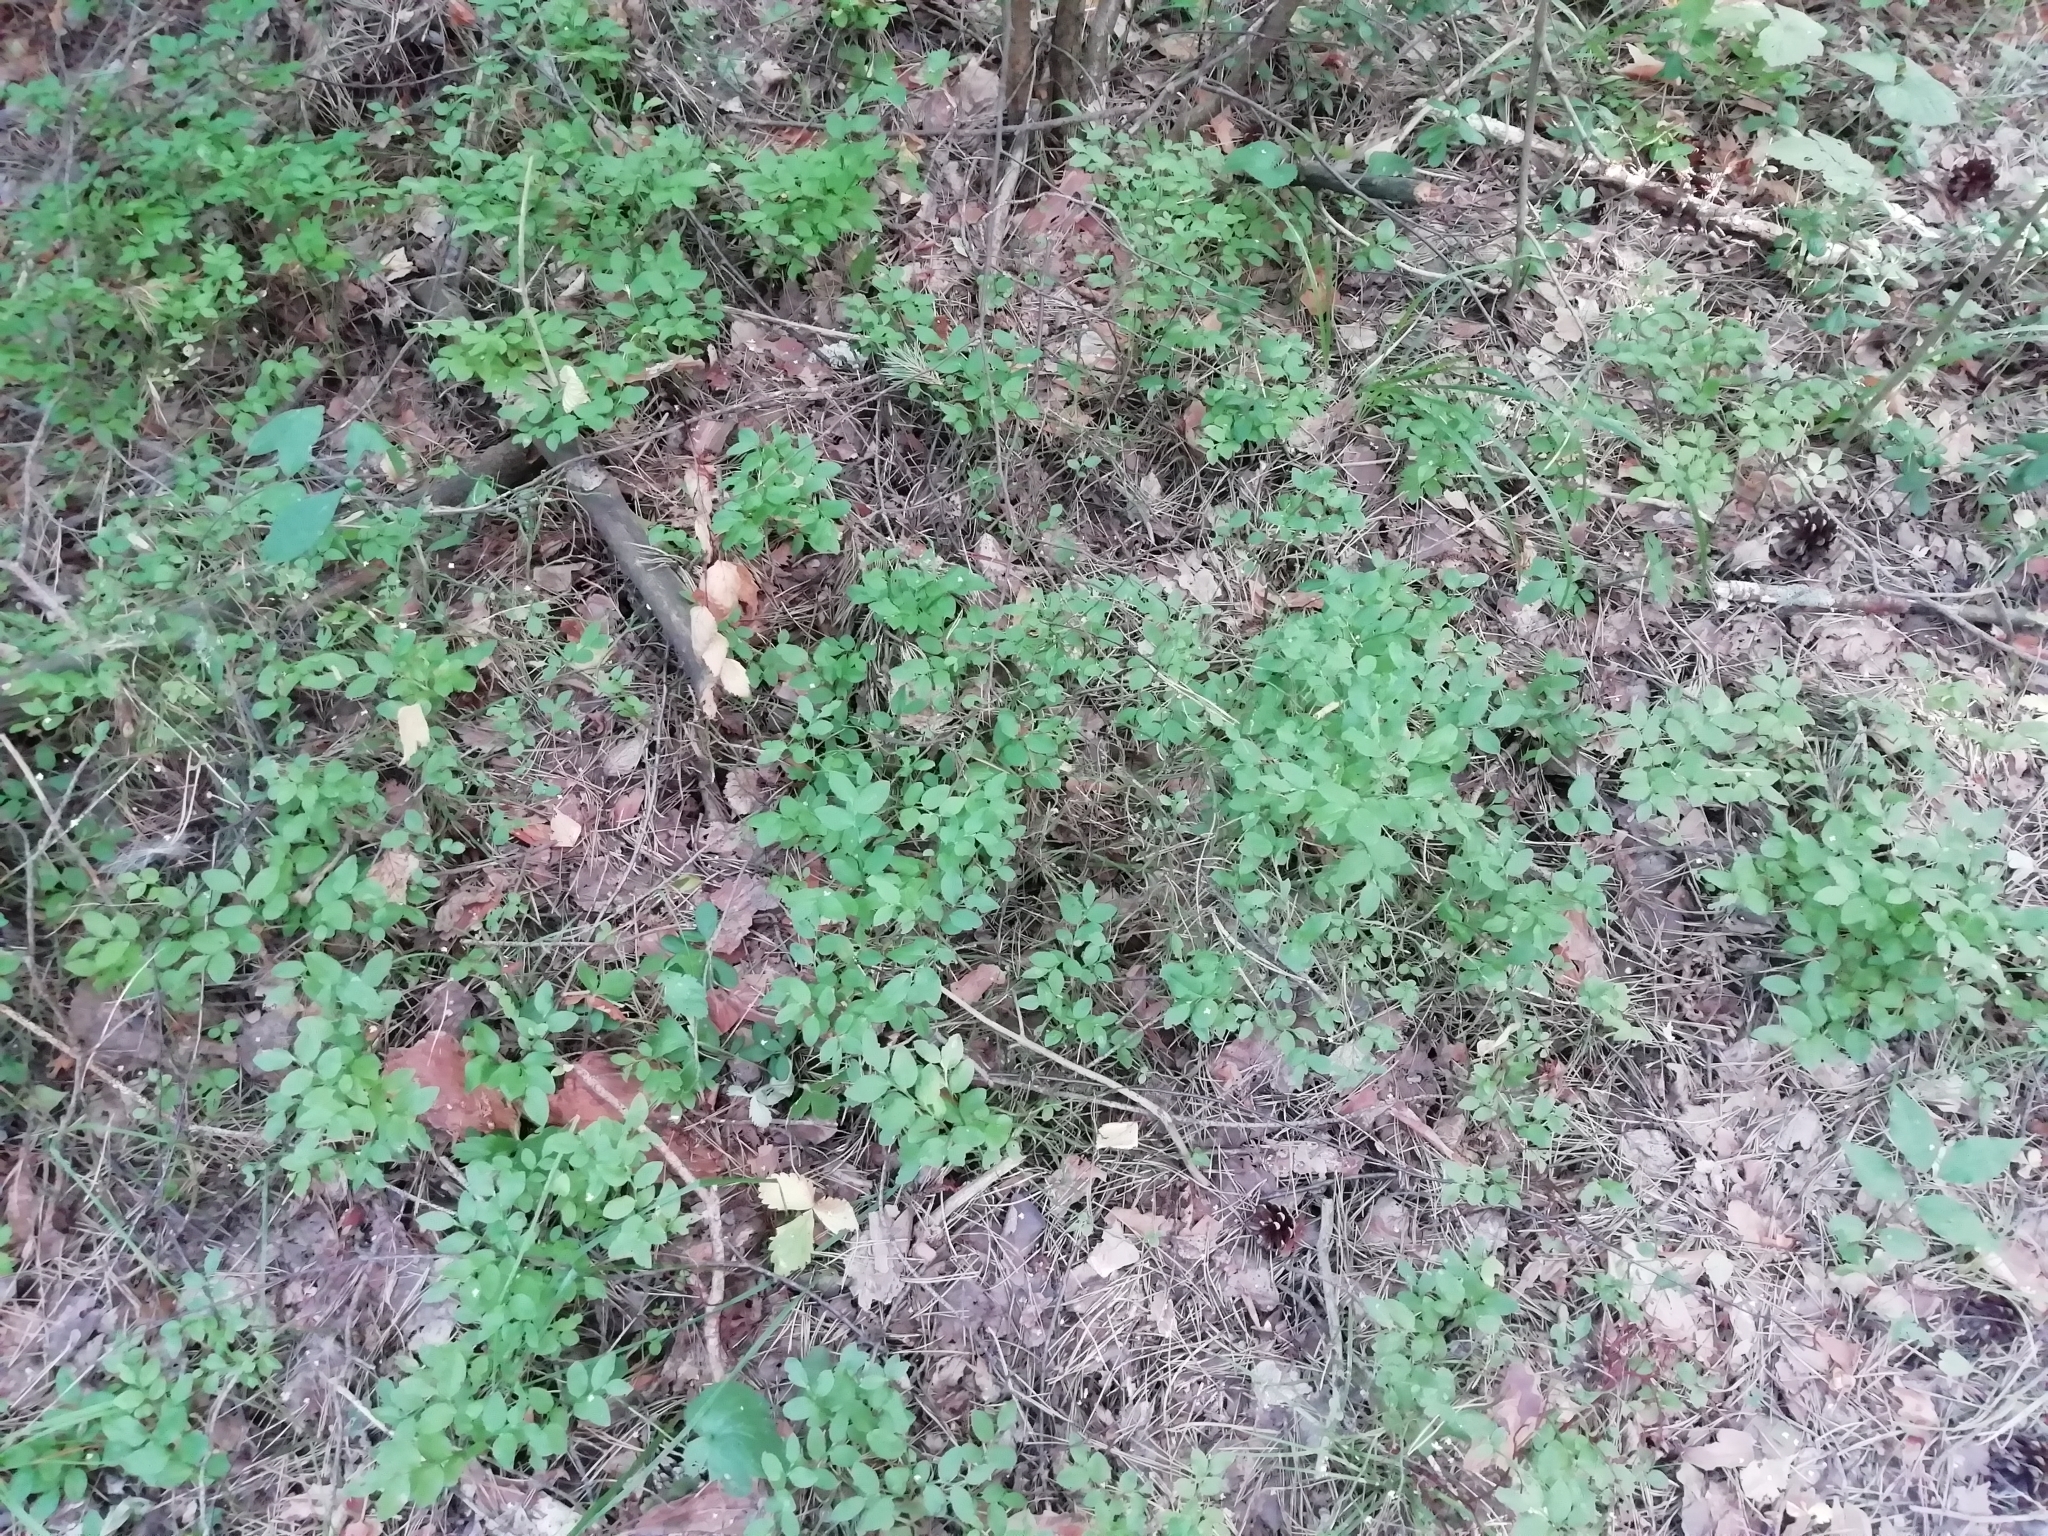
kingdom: Plantae
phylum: Tracheophyta
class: Magnoliopsida
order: Ericales
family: Ericaceae
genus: Vaccinium
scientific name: Vaccinium myrtillus
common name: Bilberry
